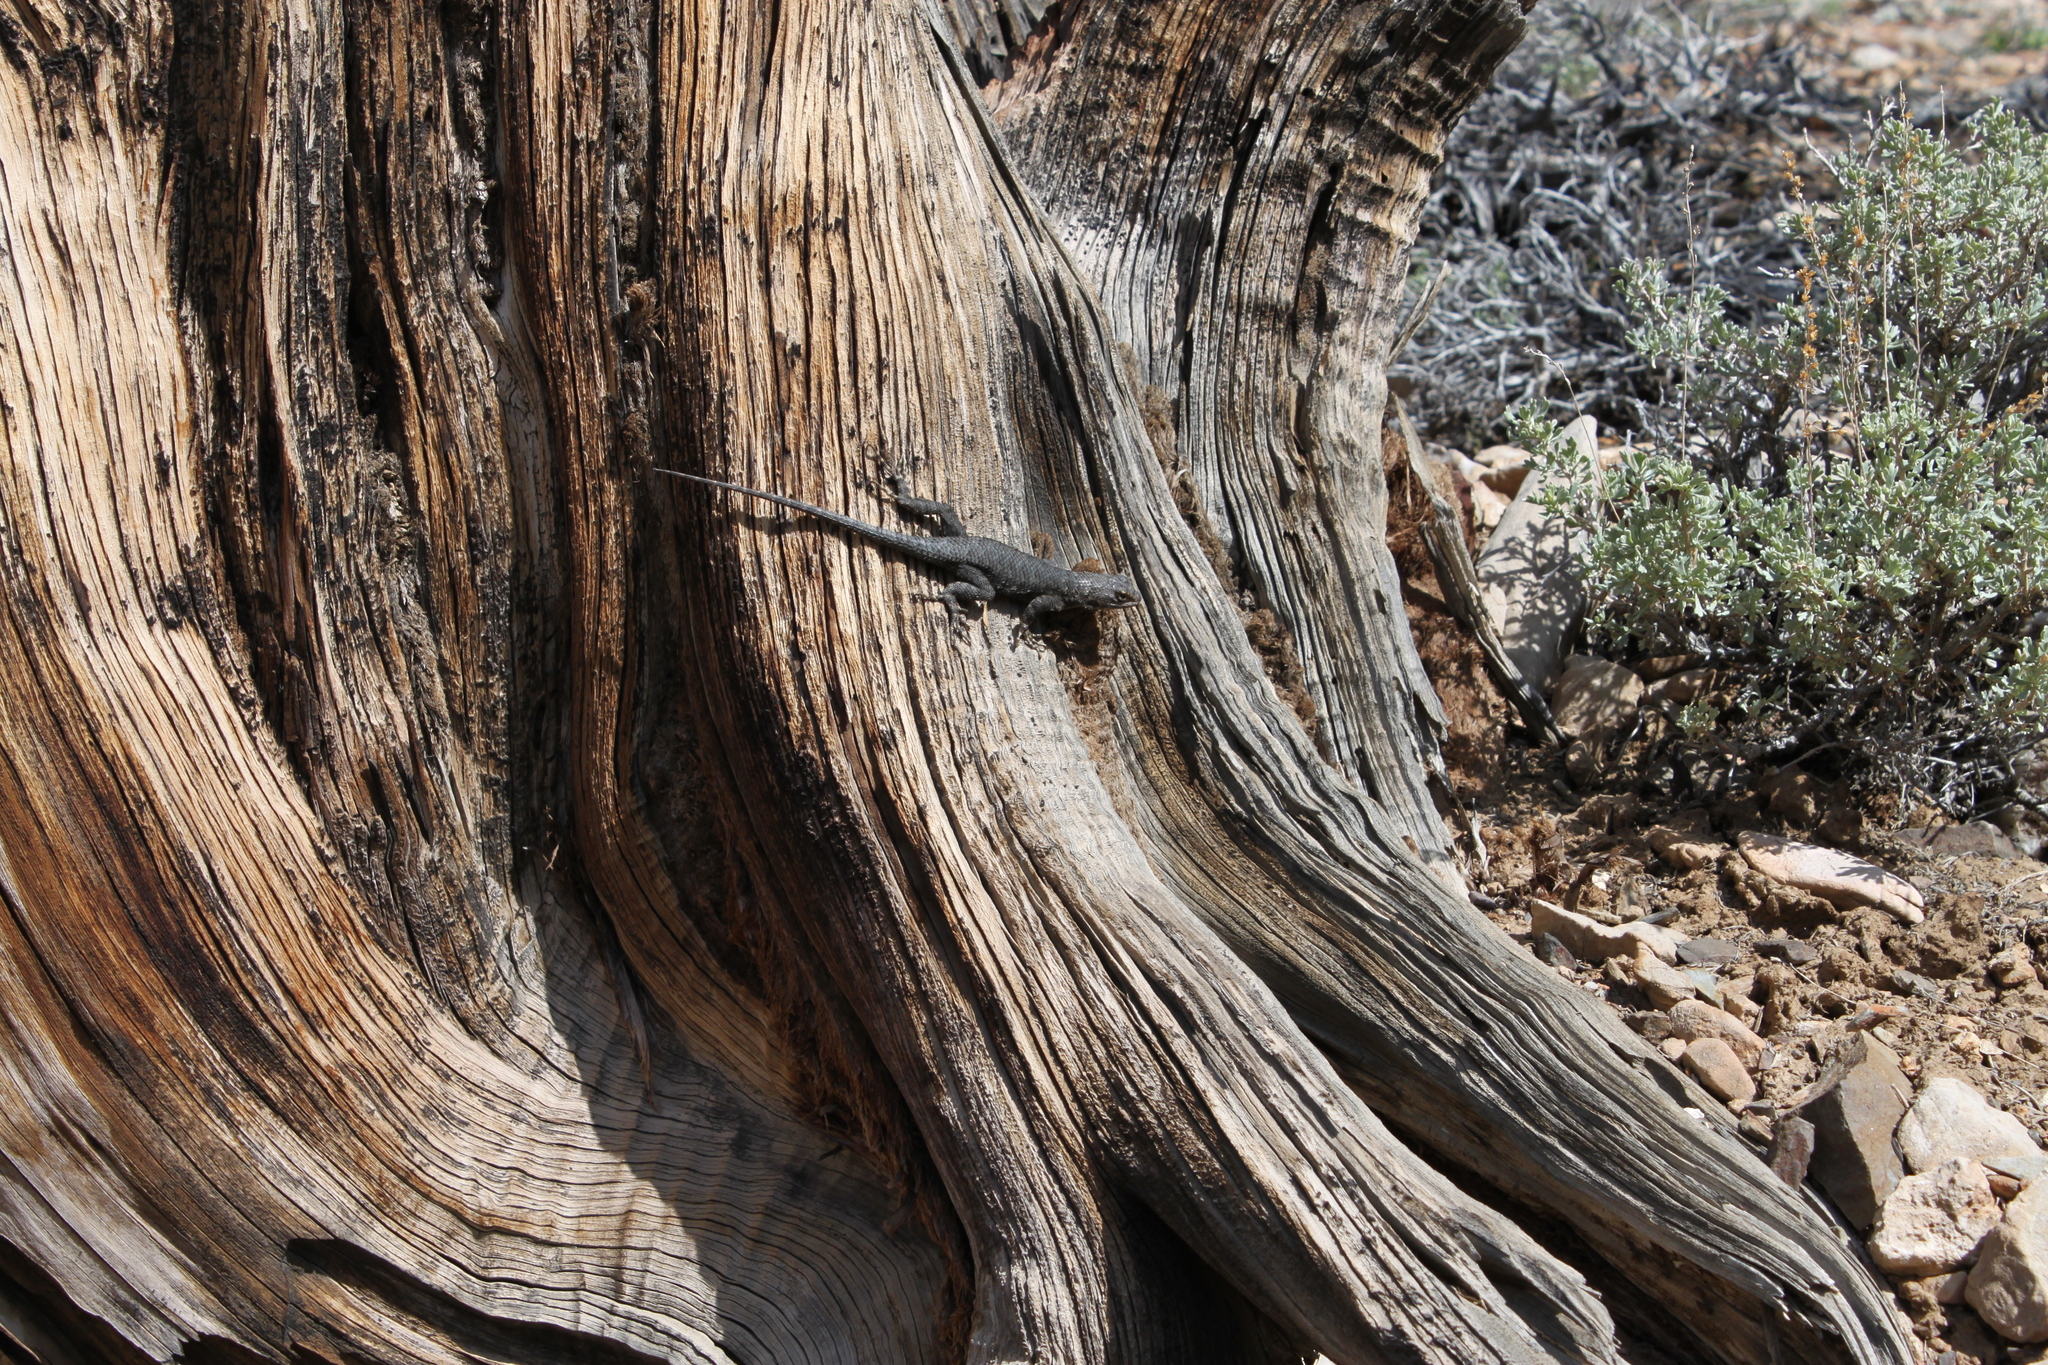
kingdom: Animalia
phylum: Chordata
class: Squamata
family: Phrynosomatidae
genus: Sceloporus
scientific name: Sceloporus occidentalis
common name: Western fence lizard
